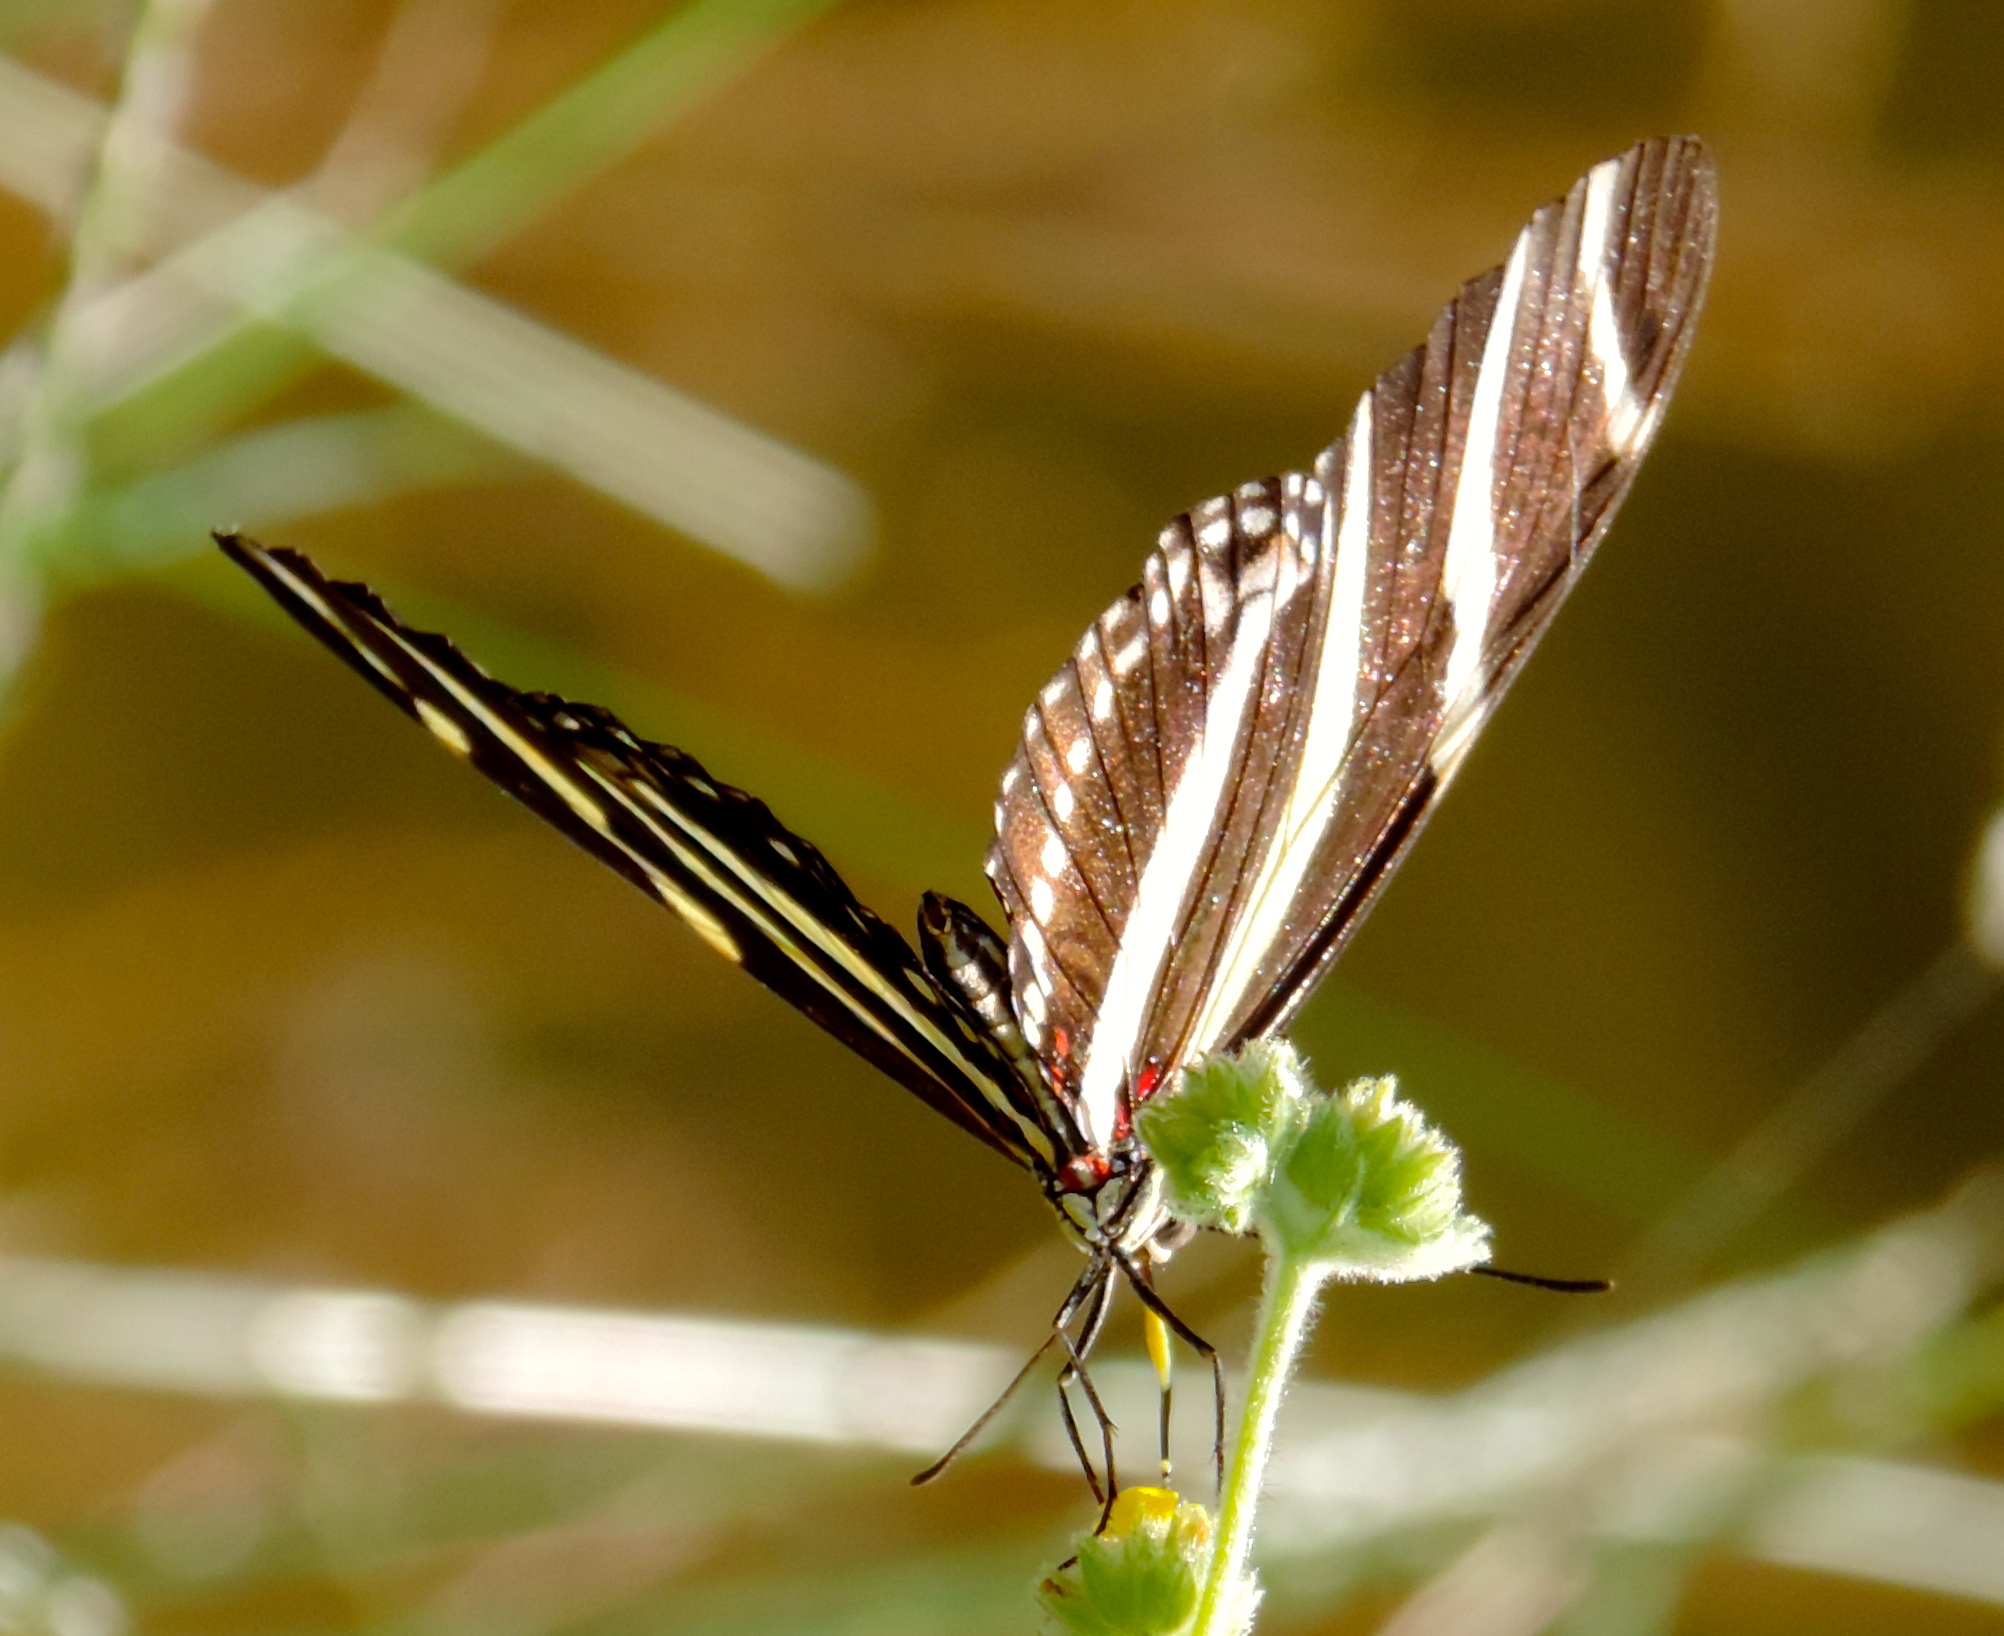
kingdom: Animalia
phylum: Arthropoda
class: Insecta
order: Lepidoptera
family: Nymphalidae
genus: Heliconius
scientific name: Heliconius charithonia
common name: Zebra long wing
